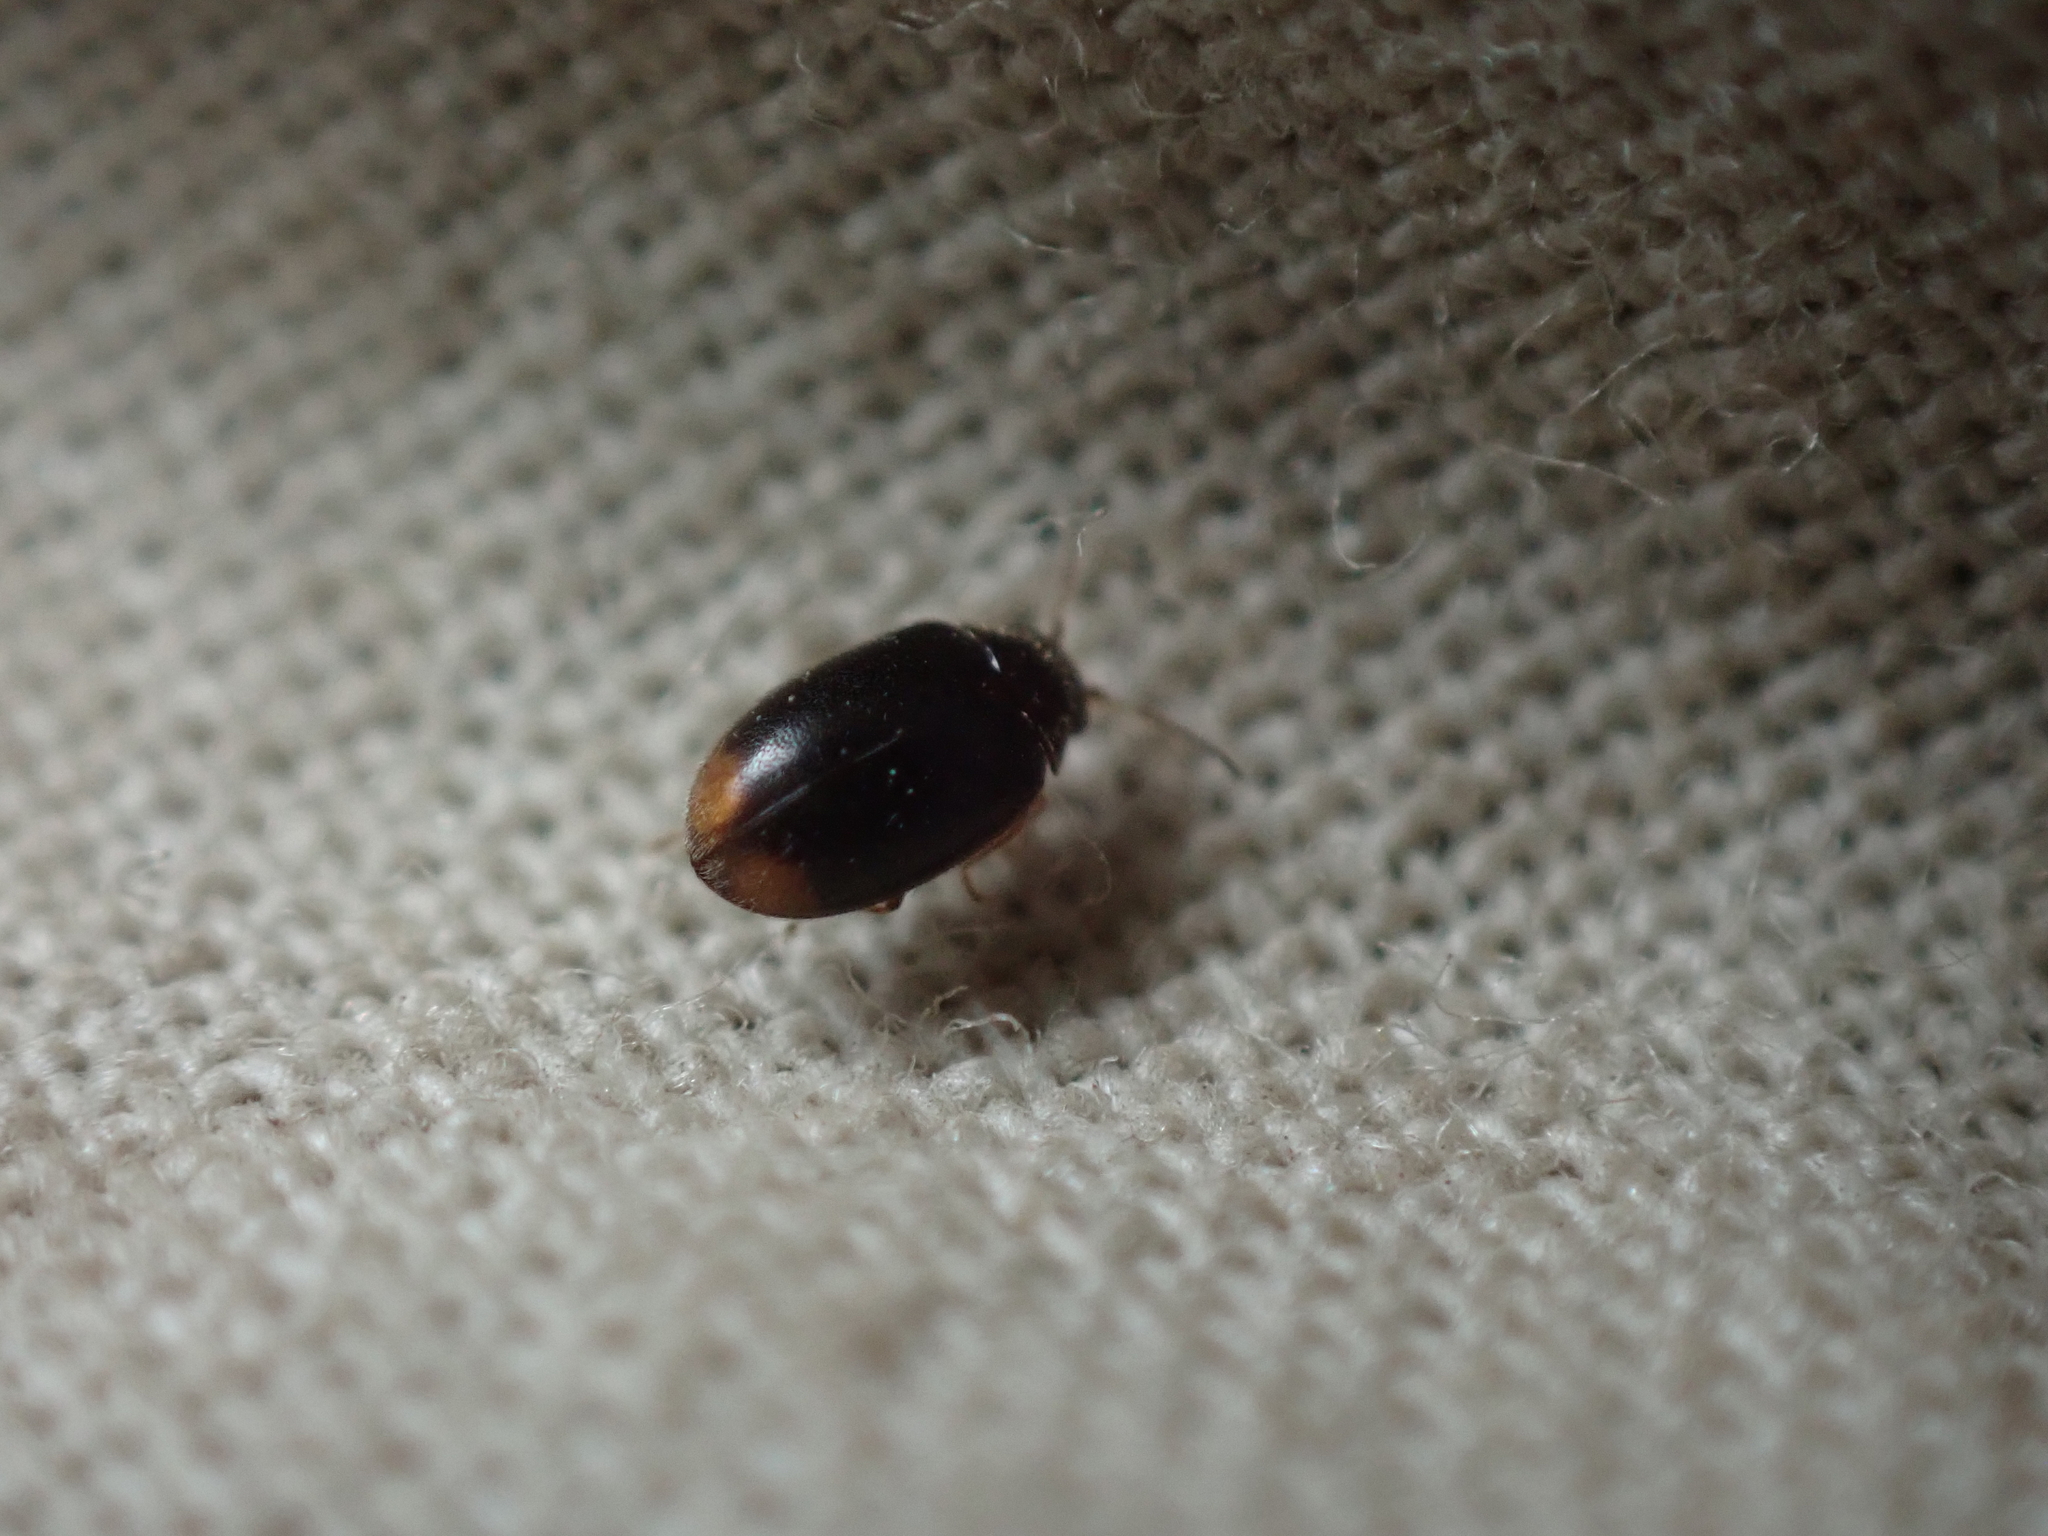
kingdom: Animalia
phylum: Arthropoda
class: Insecta
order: Coleoptera
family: Scirtidae
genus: Contacyphon
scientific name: Contacyphon neopadi
